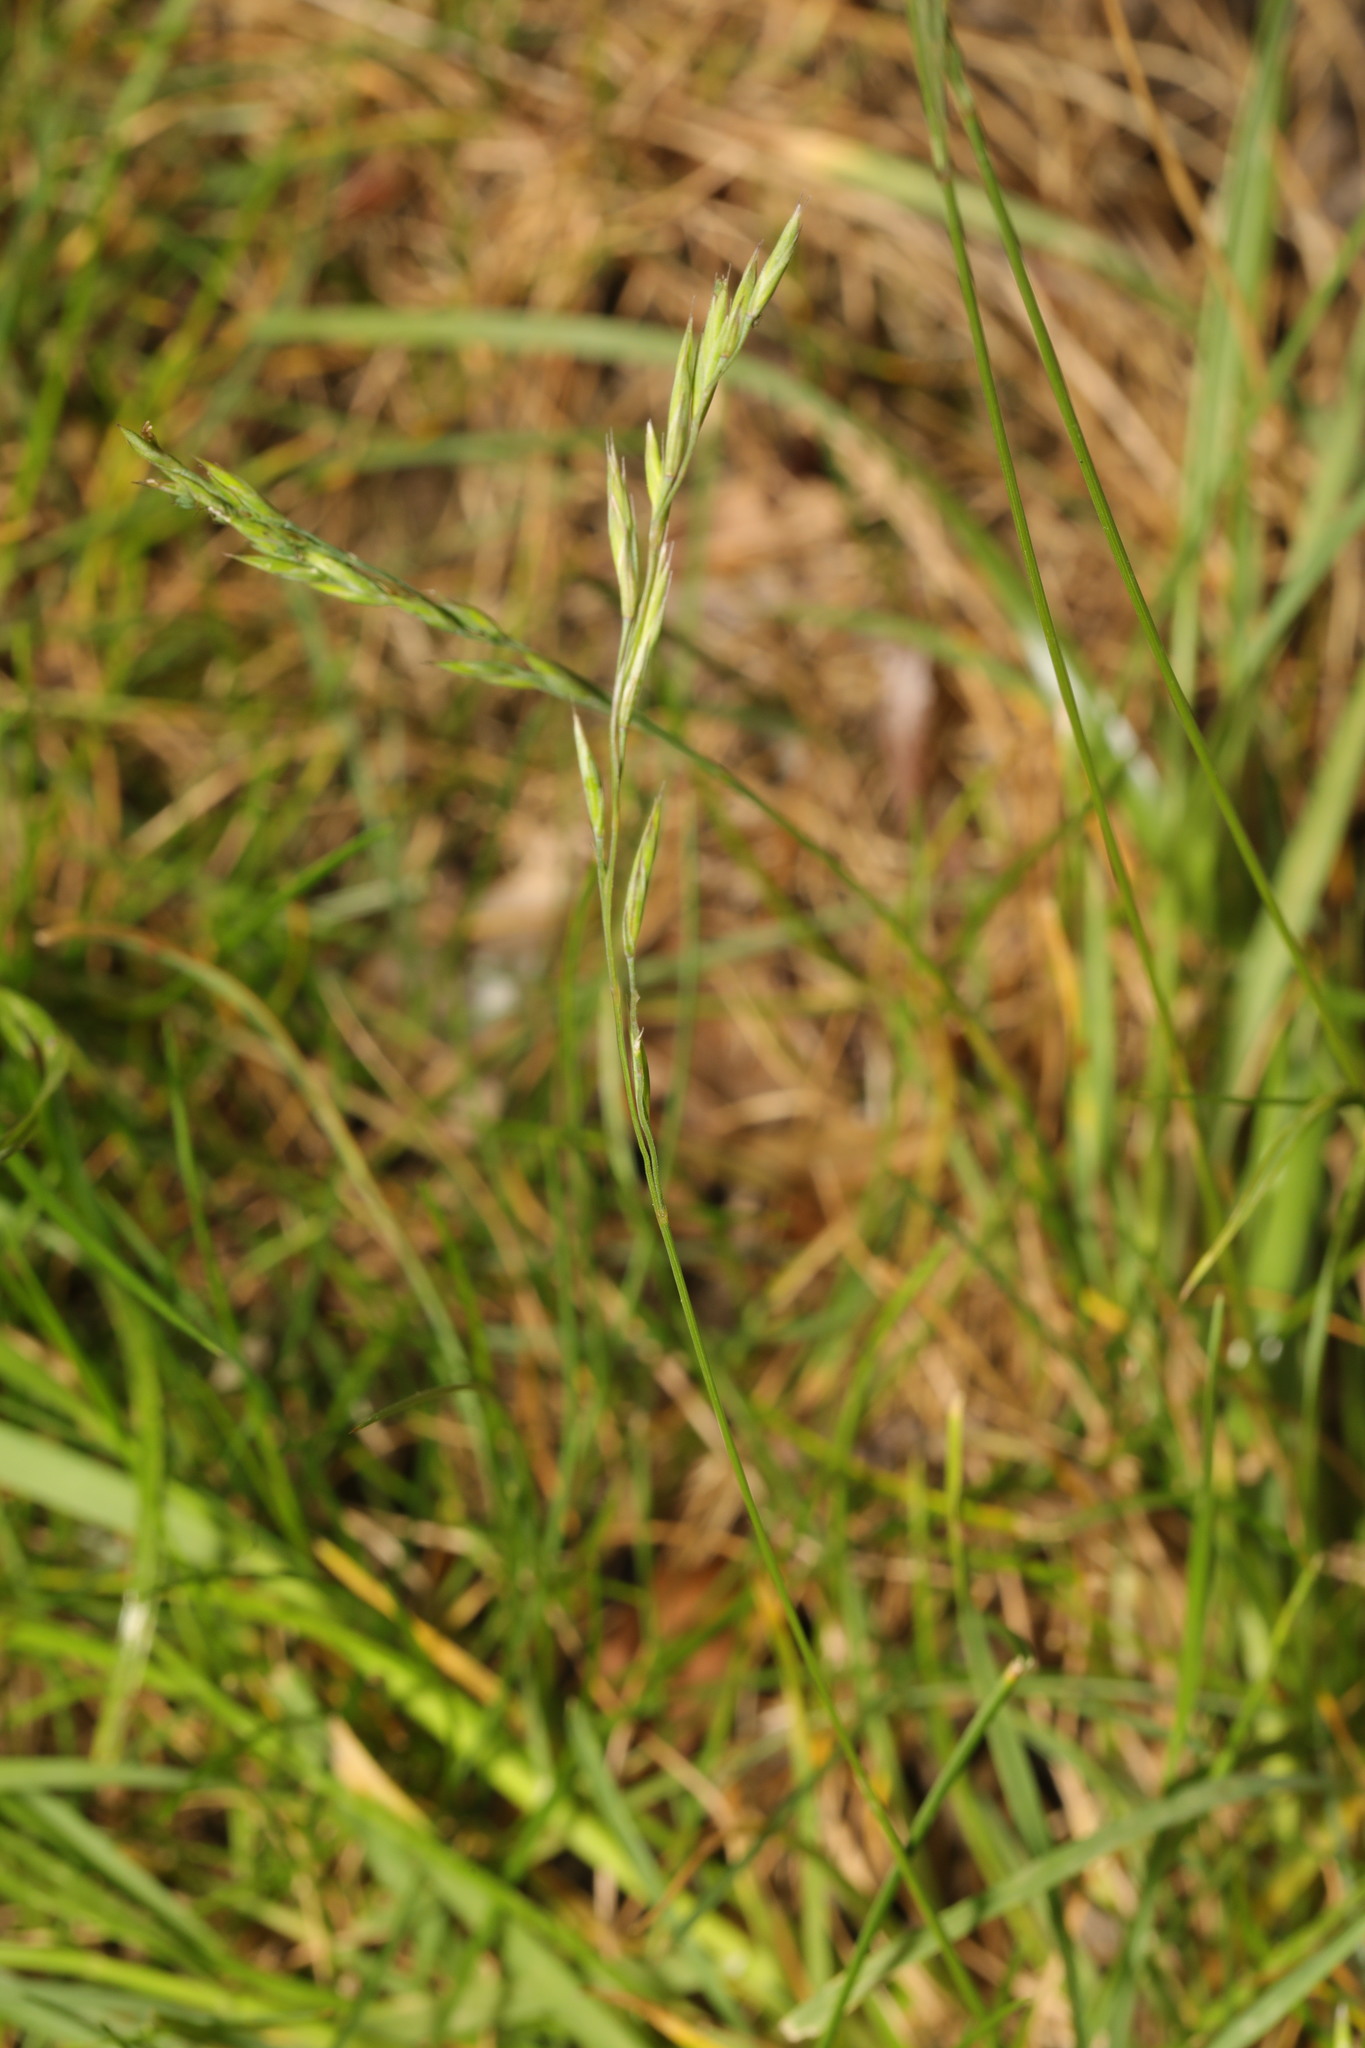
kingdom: Plantae
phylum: Tracheophyta
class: Liliopsida
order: Poales
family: Poaceae
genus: Festuca
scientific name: Festuca rubra
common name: Red fescue
